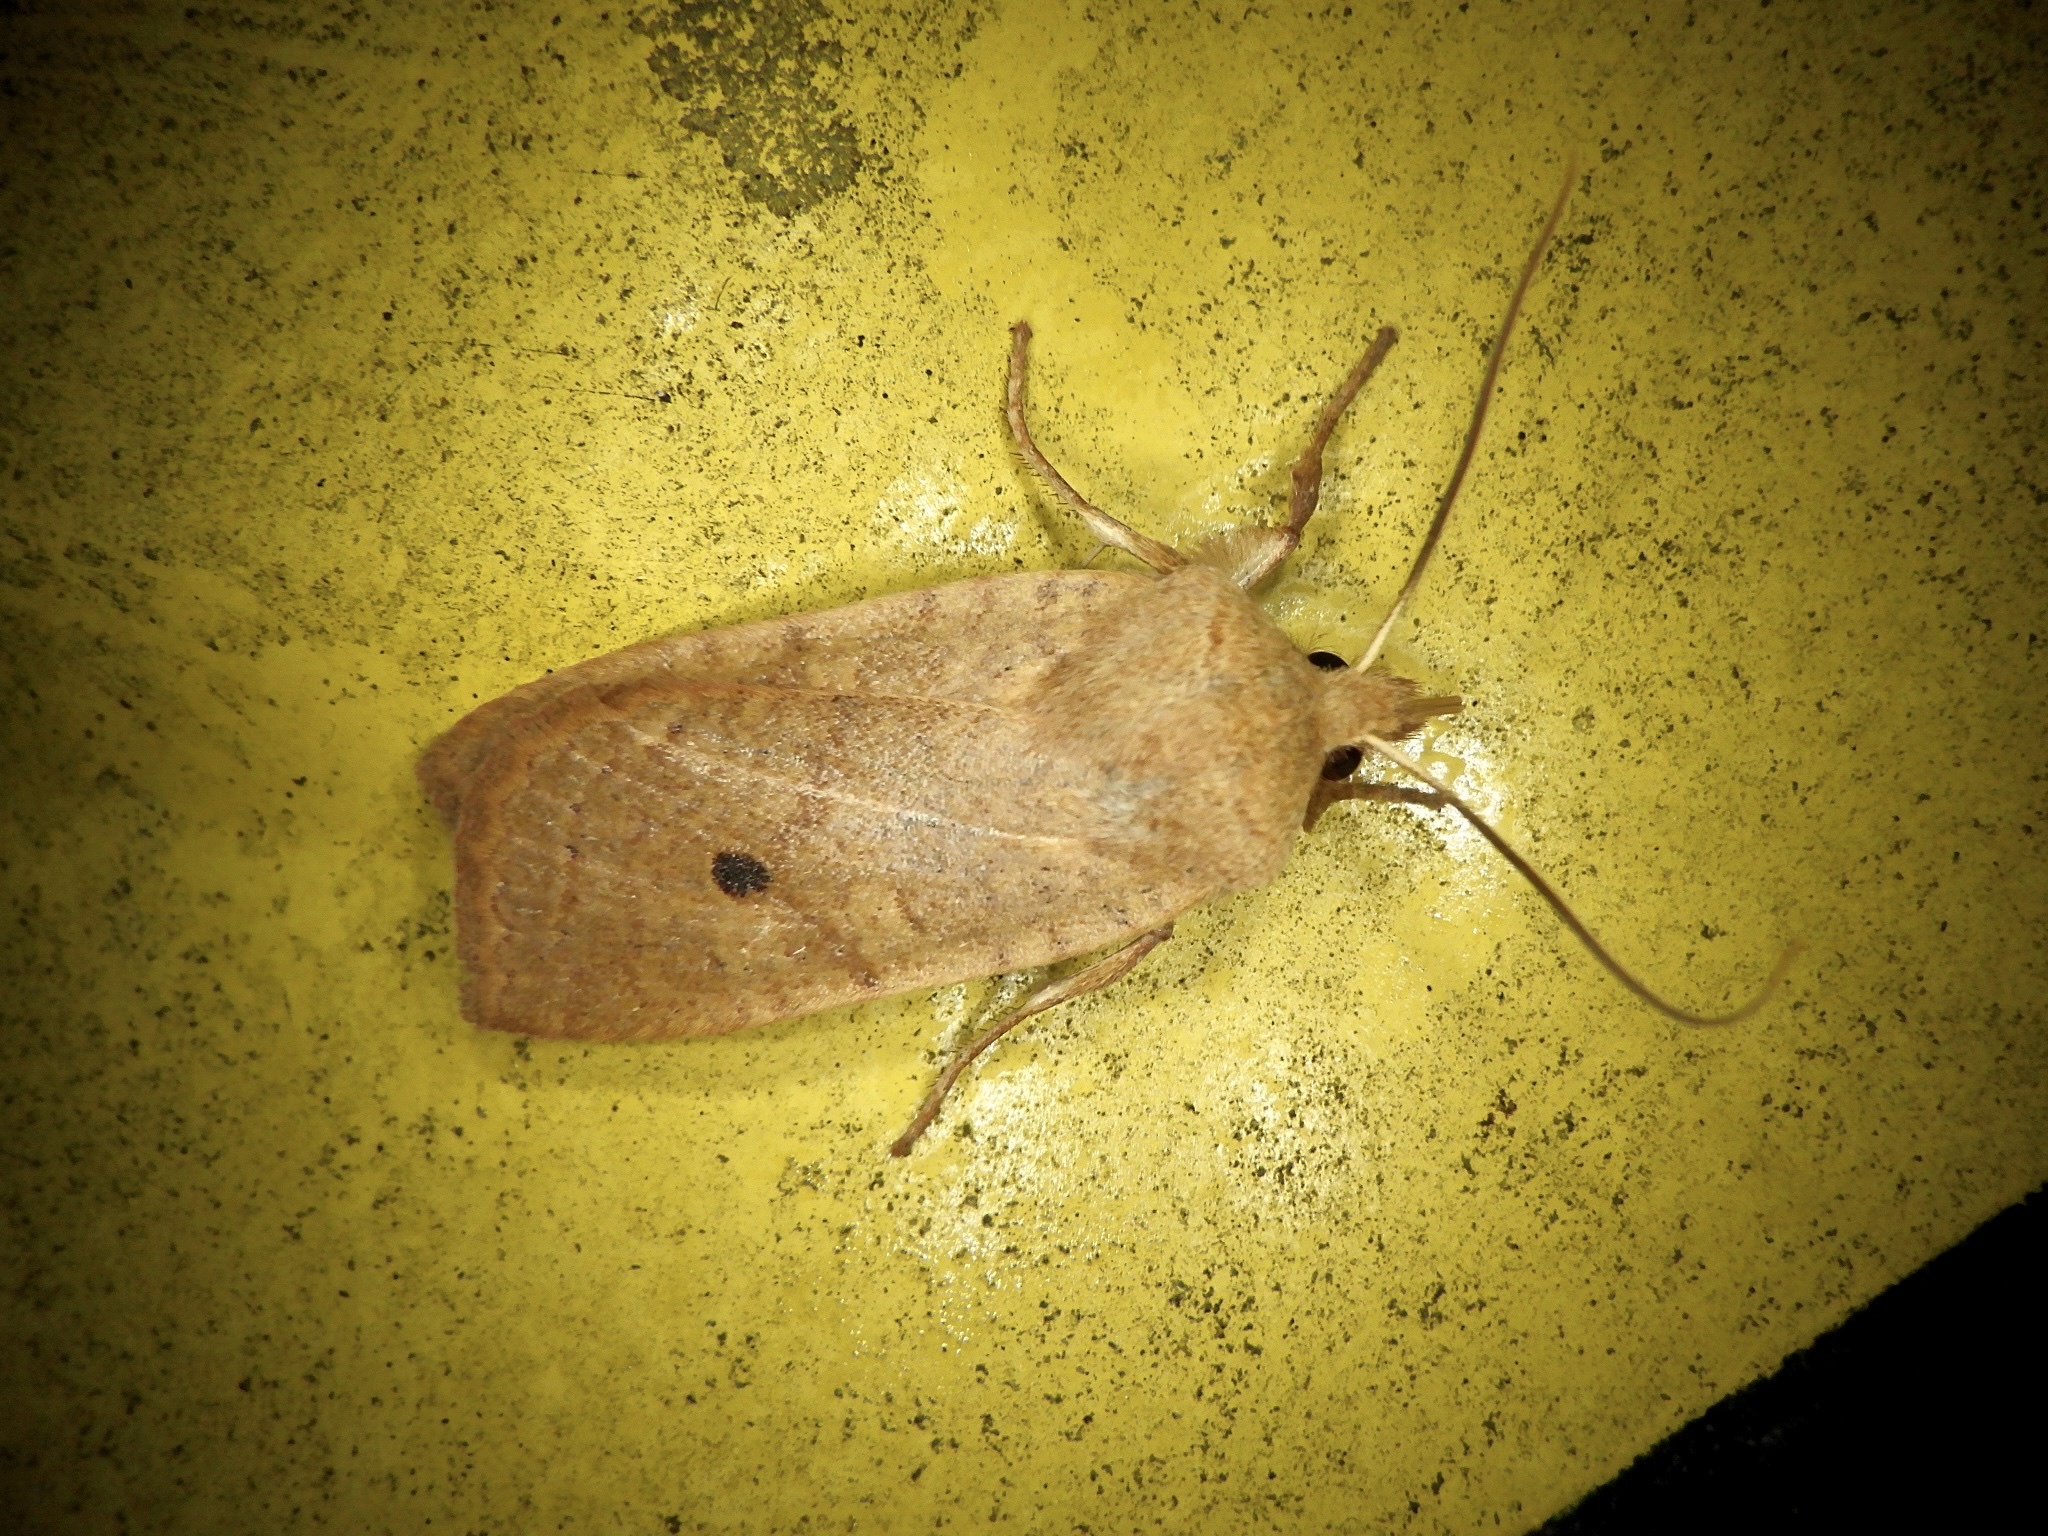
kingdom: Animalia
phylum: Arthropoda
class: Insecta
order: Lepidoptera
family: Noctuidae
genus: Conistra
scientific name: Conistra albipuncta
